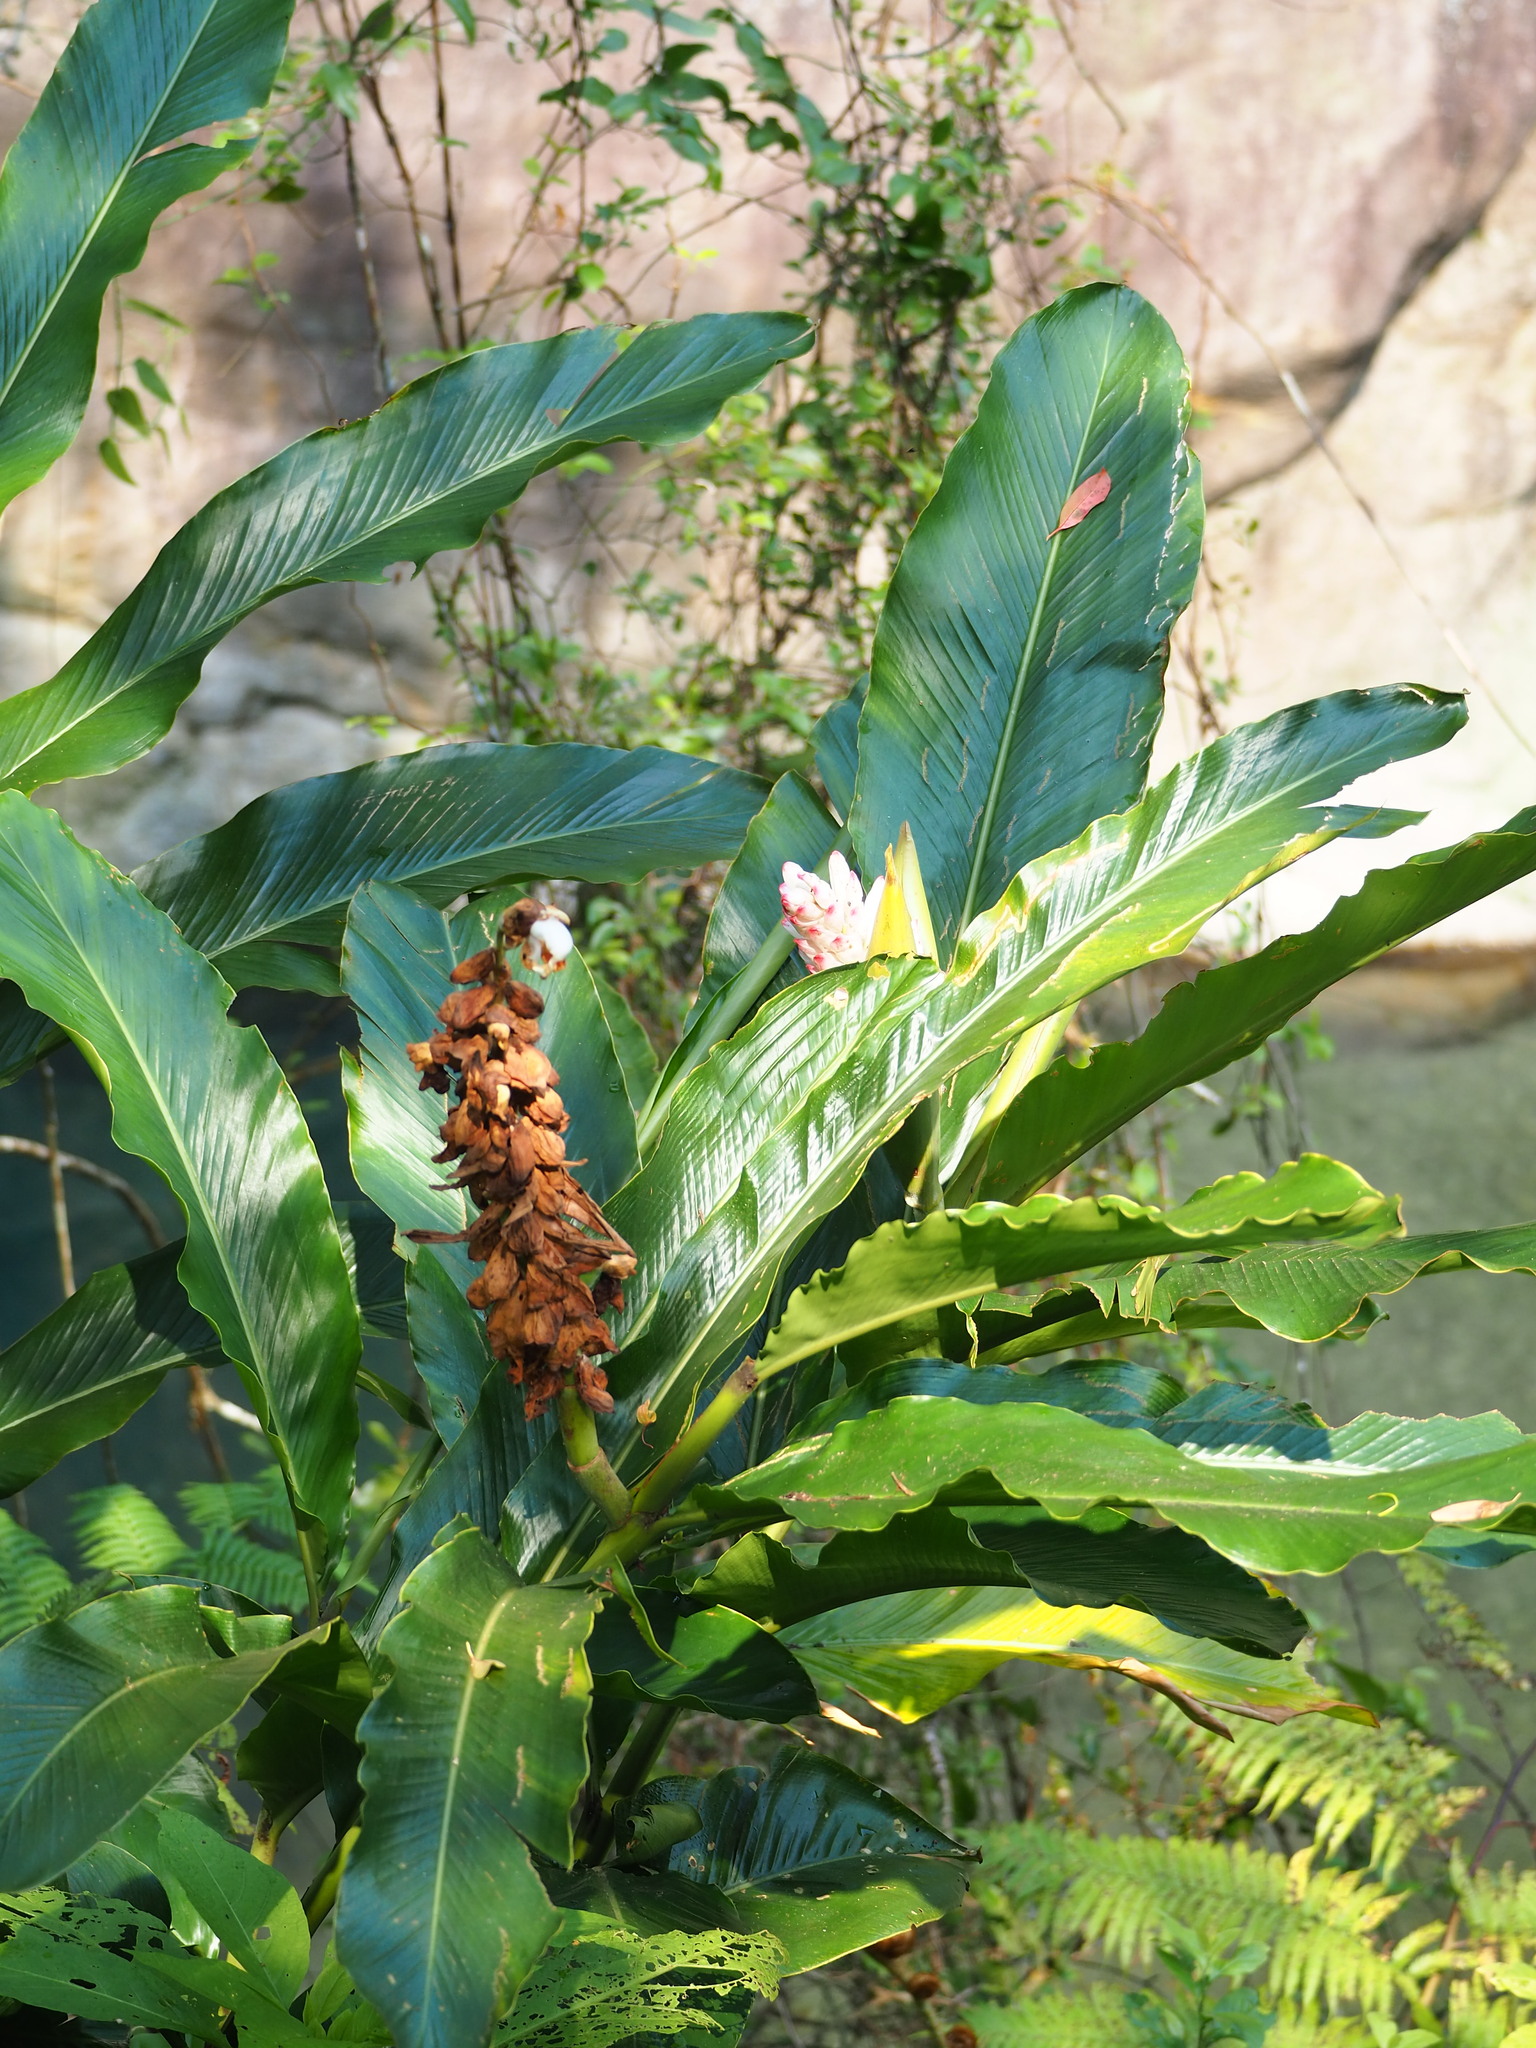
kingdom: Plantae
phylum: Tracheophyta
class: Liliopsida
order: Zingiberales
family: Zingiberaceae
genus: Alpinia
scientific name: Alpinia uraiensis
